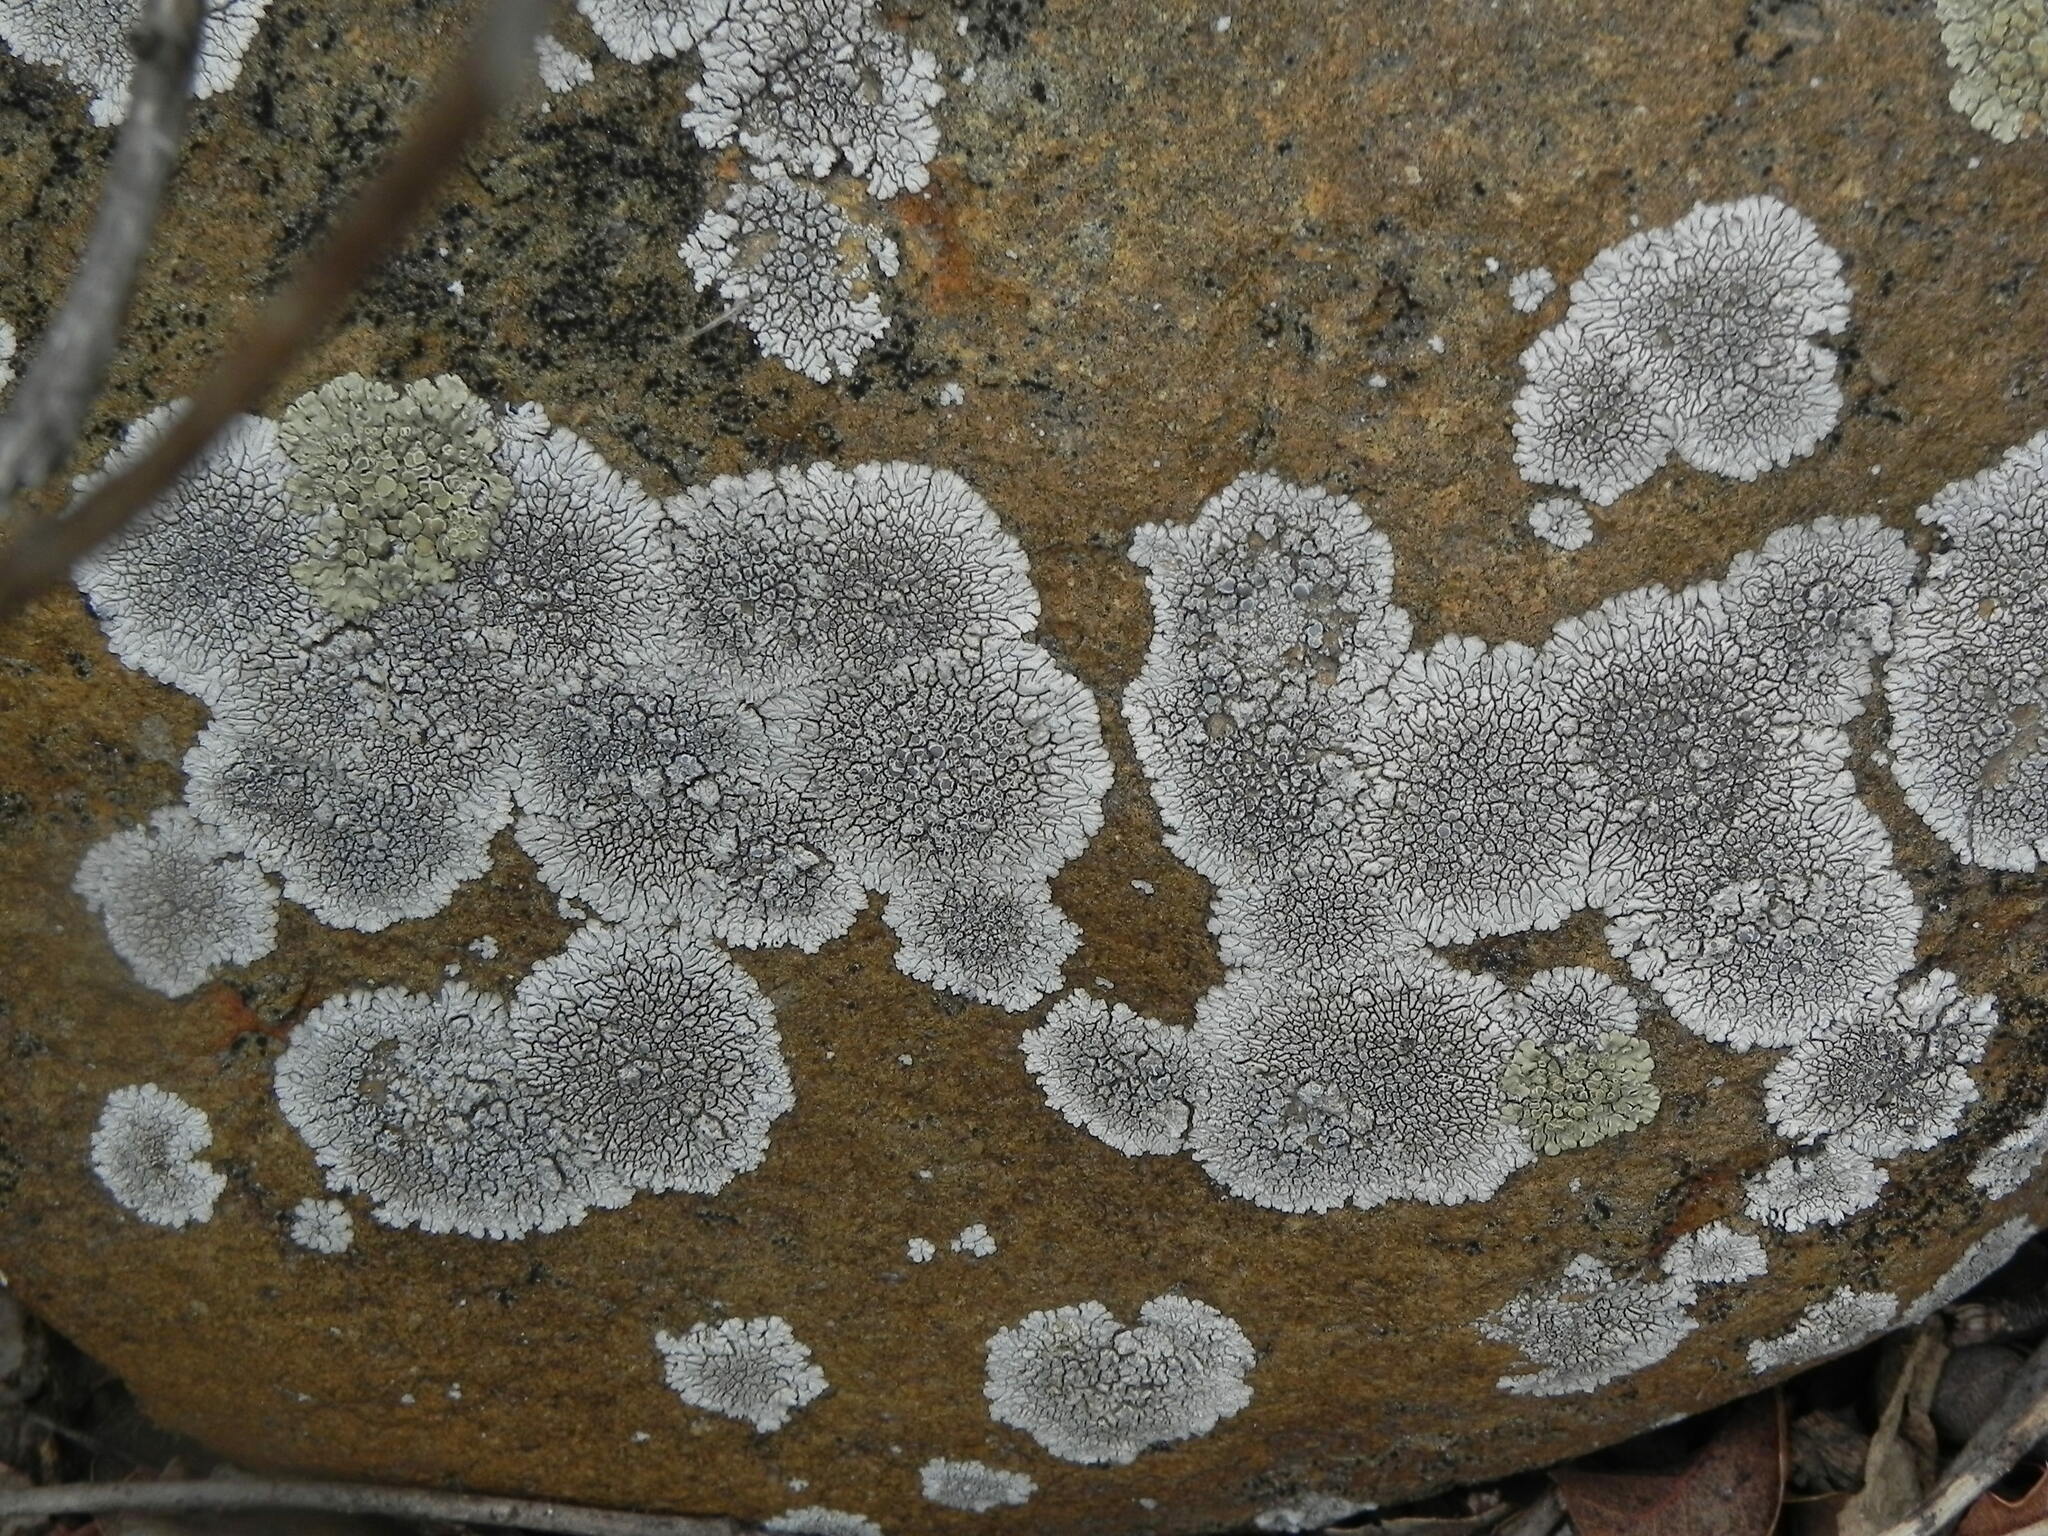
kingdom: Fungi
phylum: Ascomycota
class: Lecanoromycetes
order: Caliciales
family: Caliciaceae
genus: Dimelaena
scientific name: Dimelaena radiata
